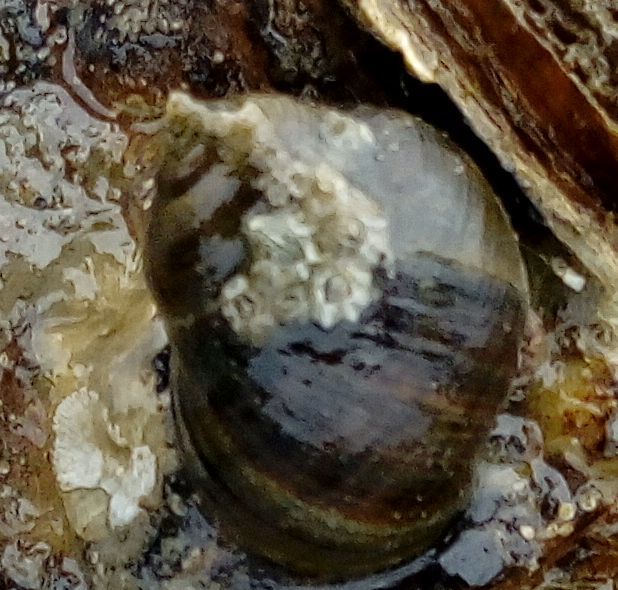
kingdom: Animalia
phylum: Mollusca
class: Gastropoda
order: Littorinimorpha
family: Littorinidae
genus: Littorina
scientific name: Littorina littorea
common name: Common periwinkle
